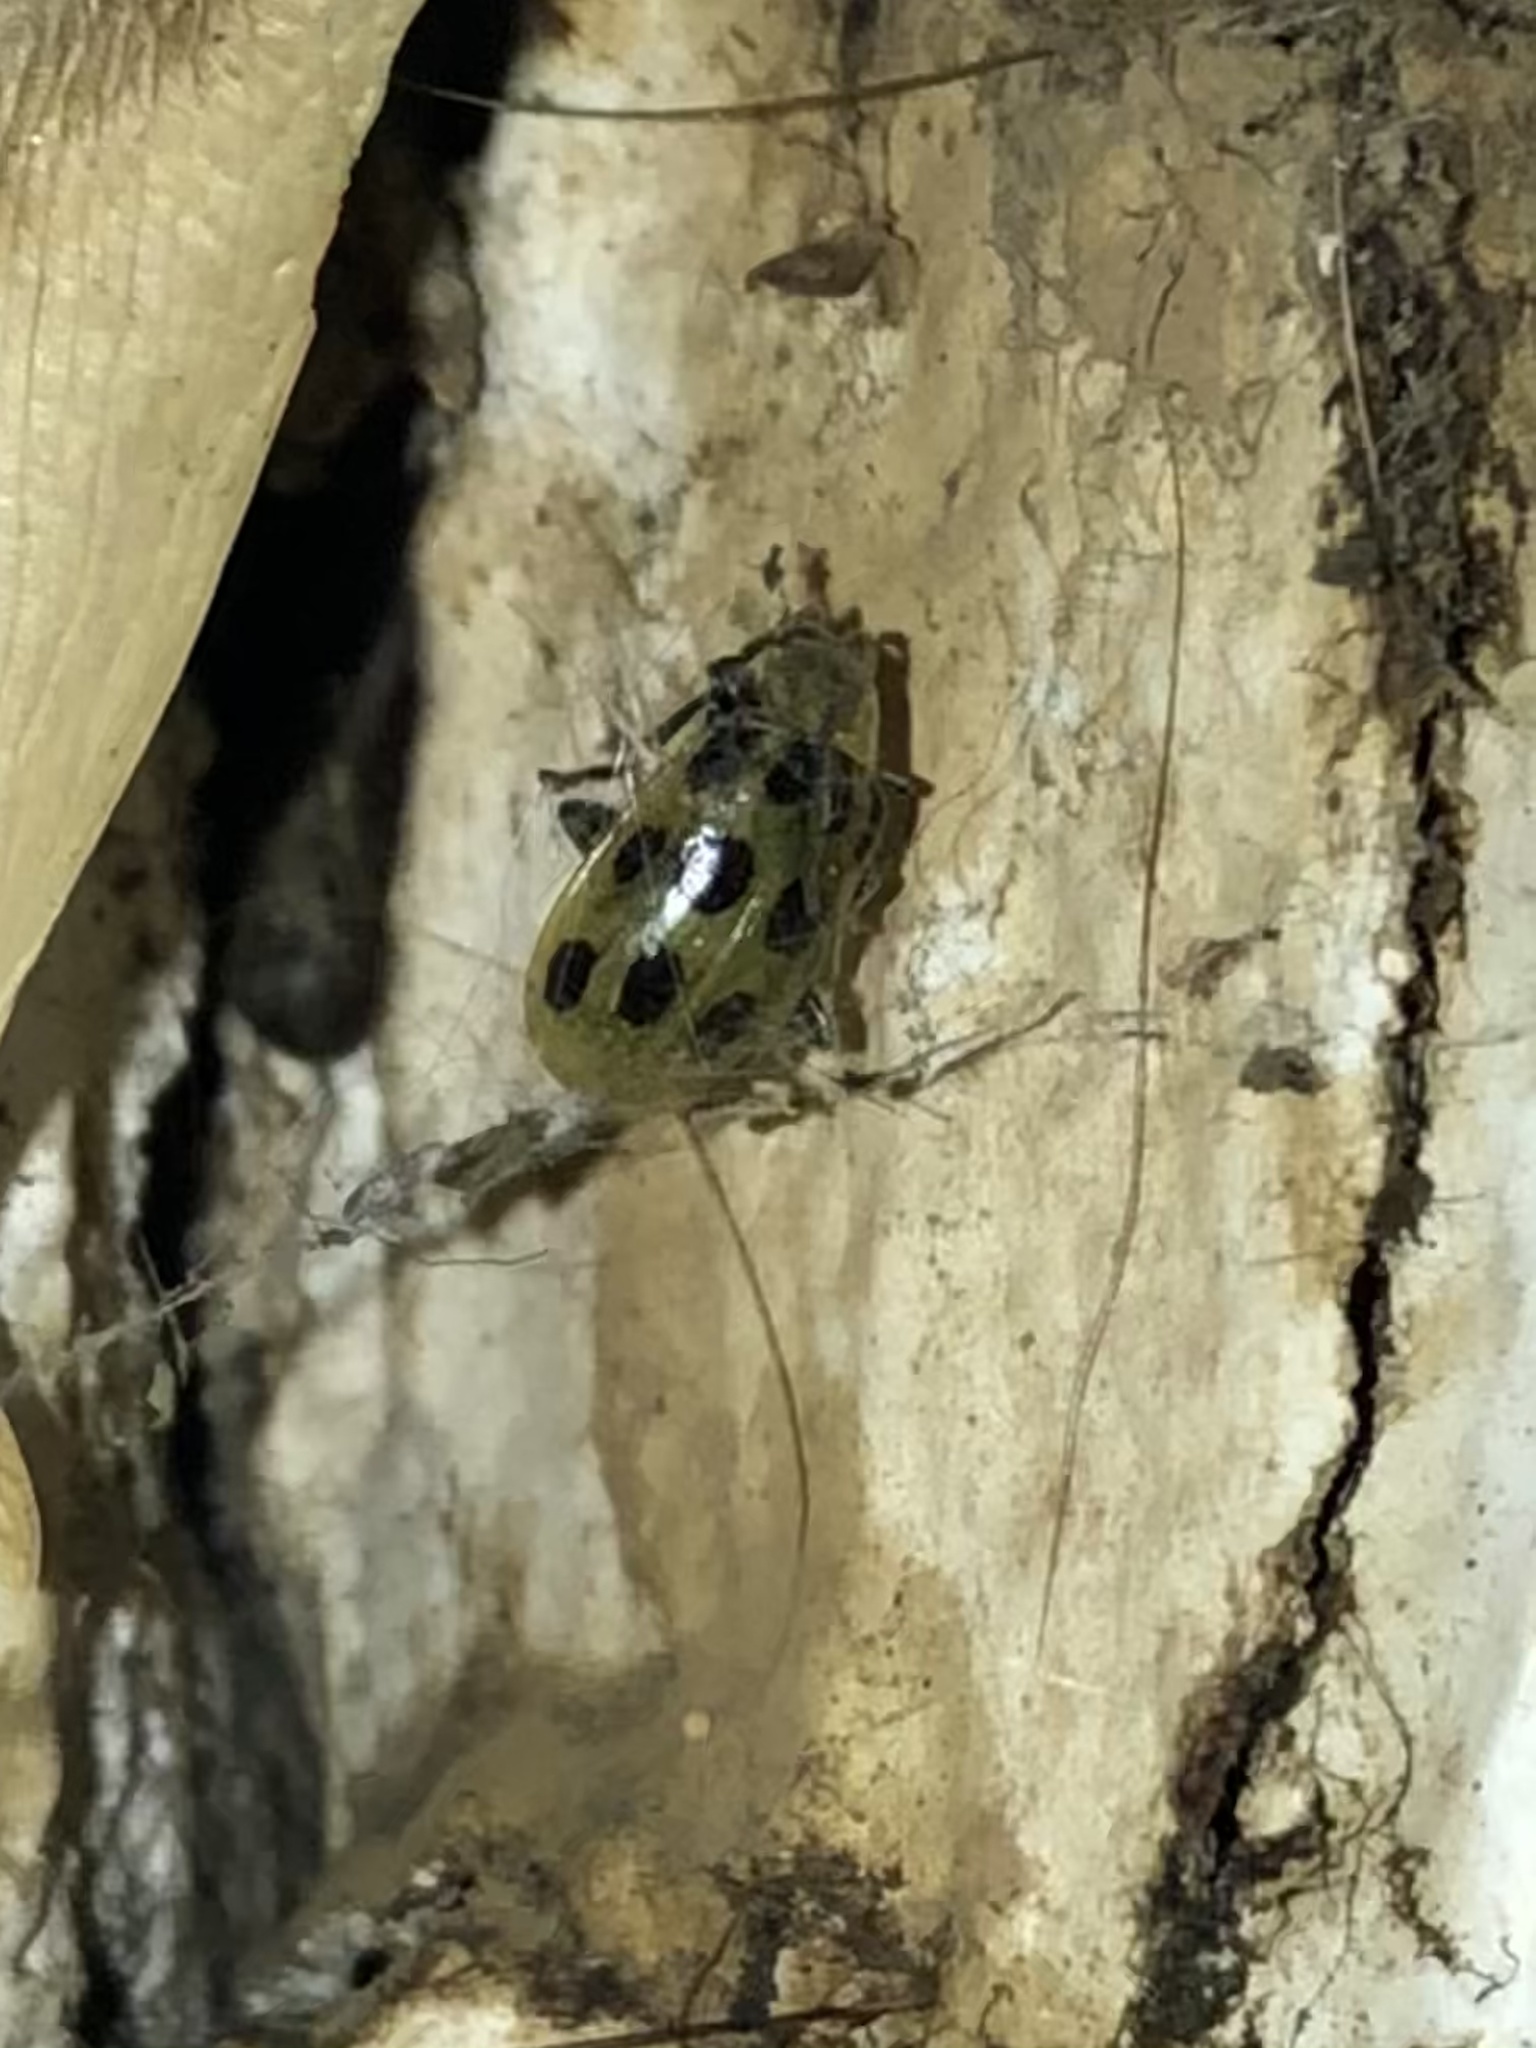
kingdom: Animalia
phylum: Arthropoda
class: Insecta
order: Coleoptera
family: Chrysomelidae
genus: Diabrotica
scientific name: Diabrotica undecimpunctata
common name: Spotted cucumber beetle
